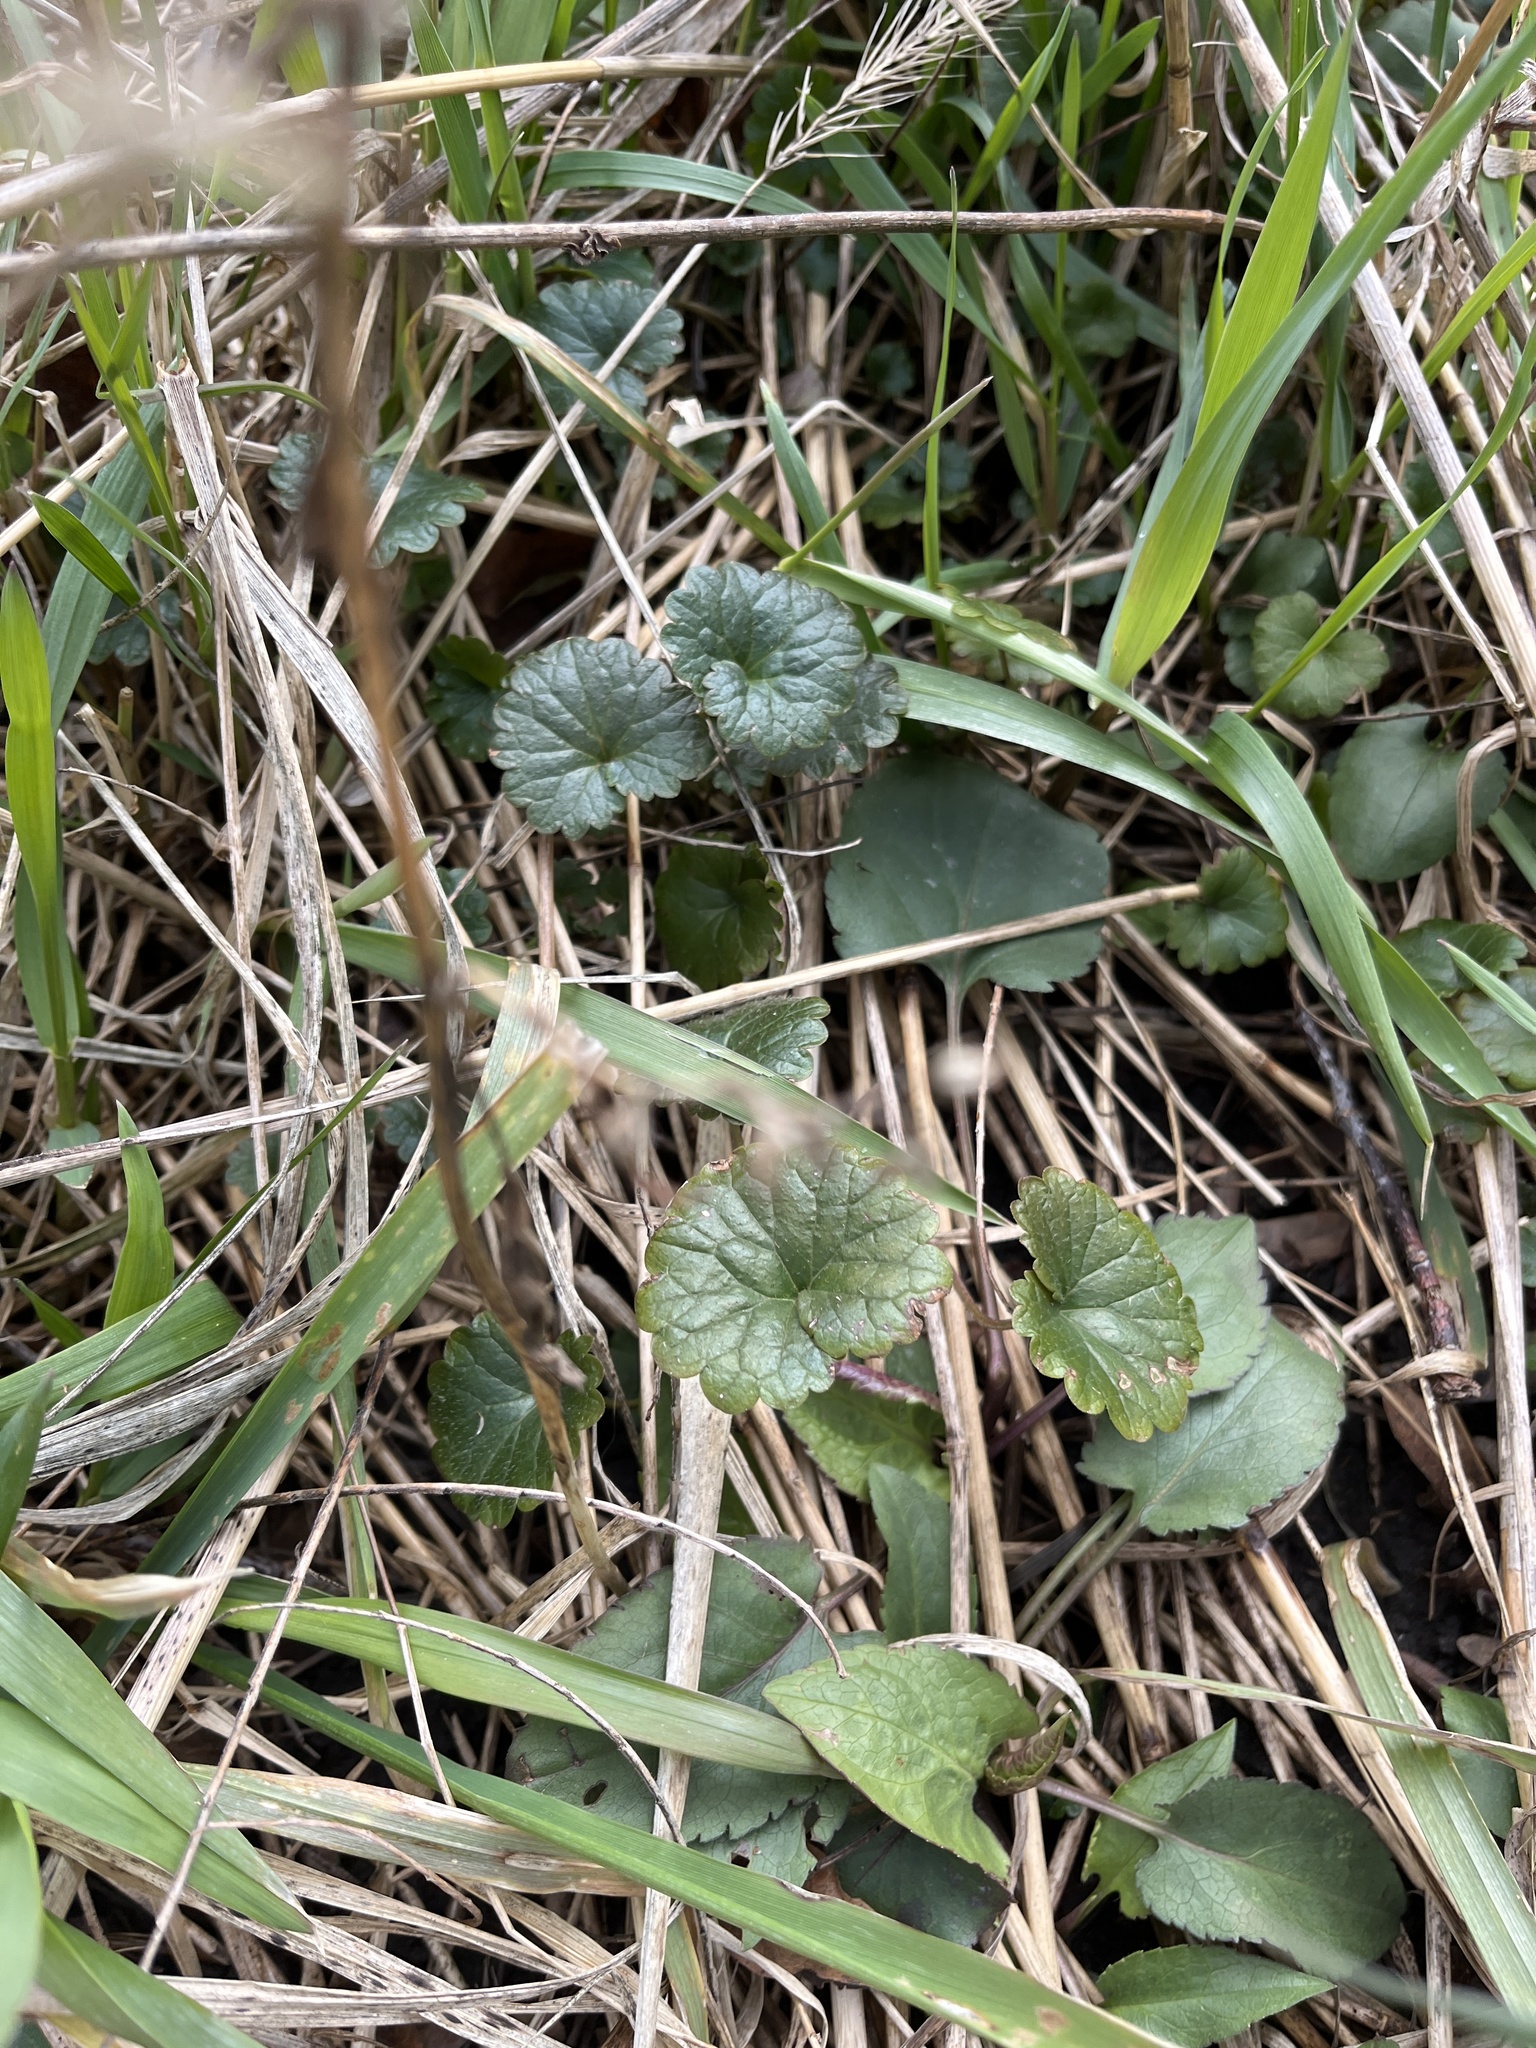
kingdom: Plantae
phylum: Tracheophyta
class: Magnoliopsida
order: Lamiales
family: Lamiaceae
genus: Glechoma
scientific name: Glechoma hederacea
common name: Ground ivy
